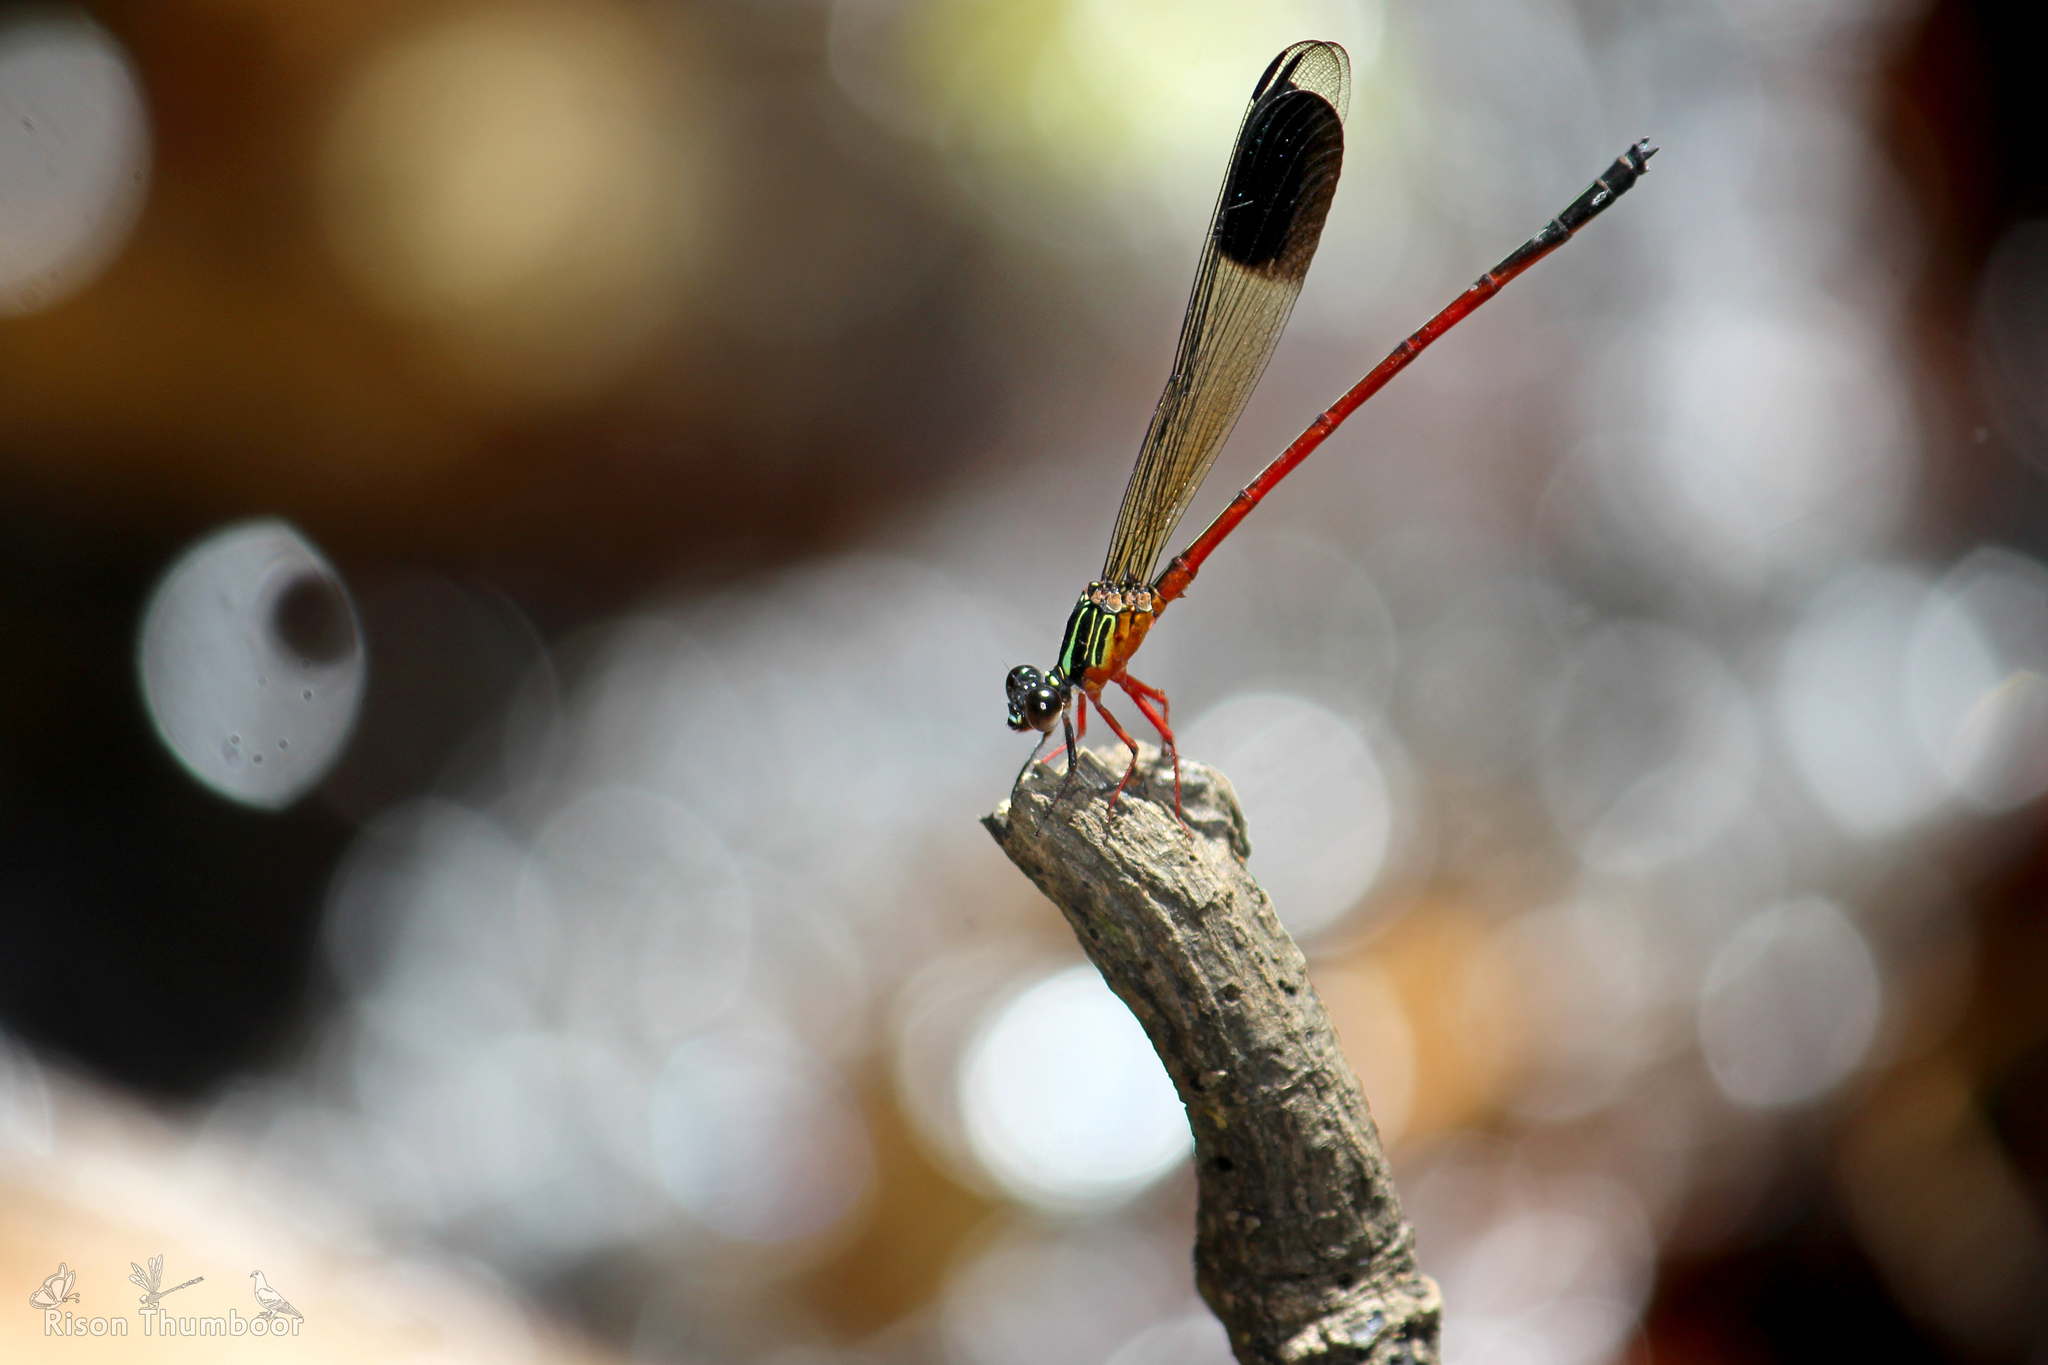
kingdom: Animalia
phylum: Arthropoda
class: Insecta
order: Odonata
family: Euphaeidae
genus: Euphaea
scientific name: Euphaea fraseri
